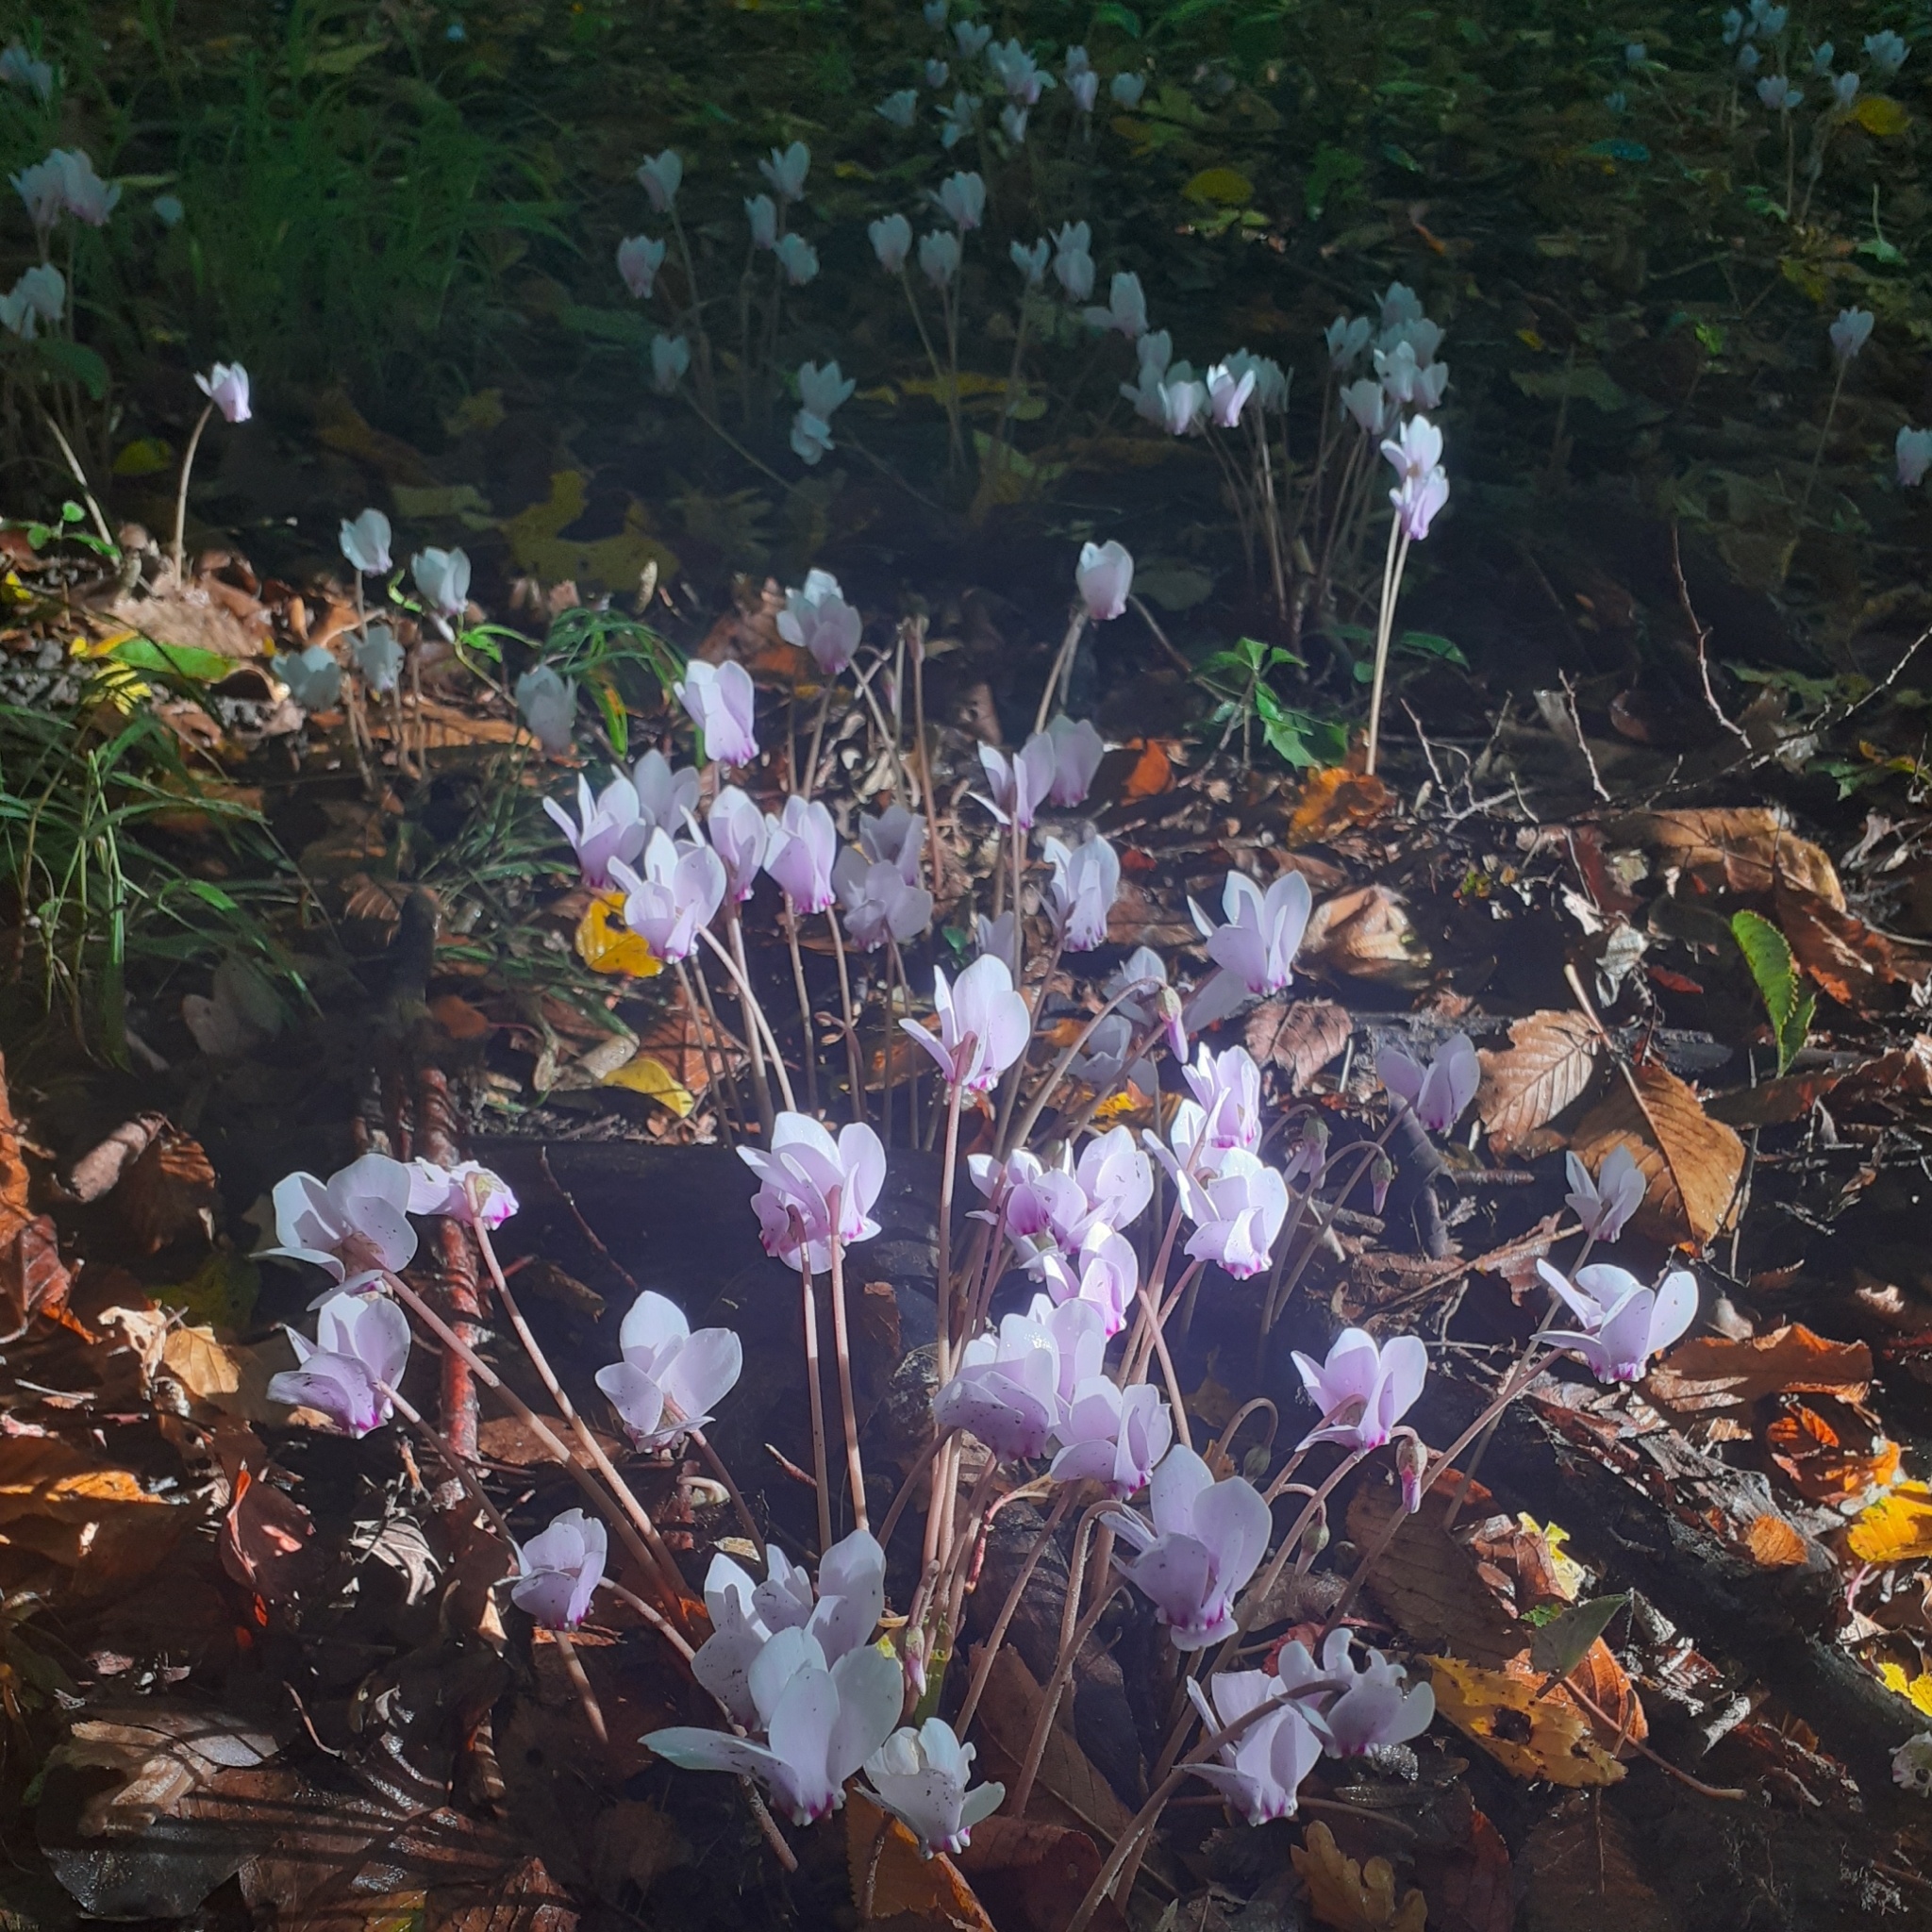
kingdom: Plantae
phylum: Tracheophyta
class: Magnoliopsida
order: Ericales
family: Primulaceae
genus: Cyclamen
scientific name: Cyclamen hederifolium
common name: Sowbread
